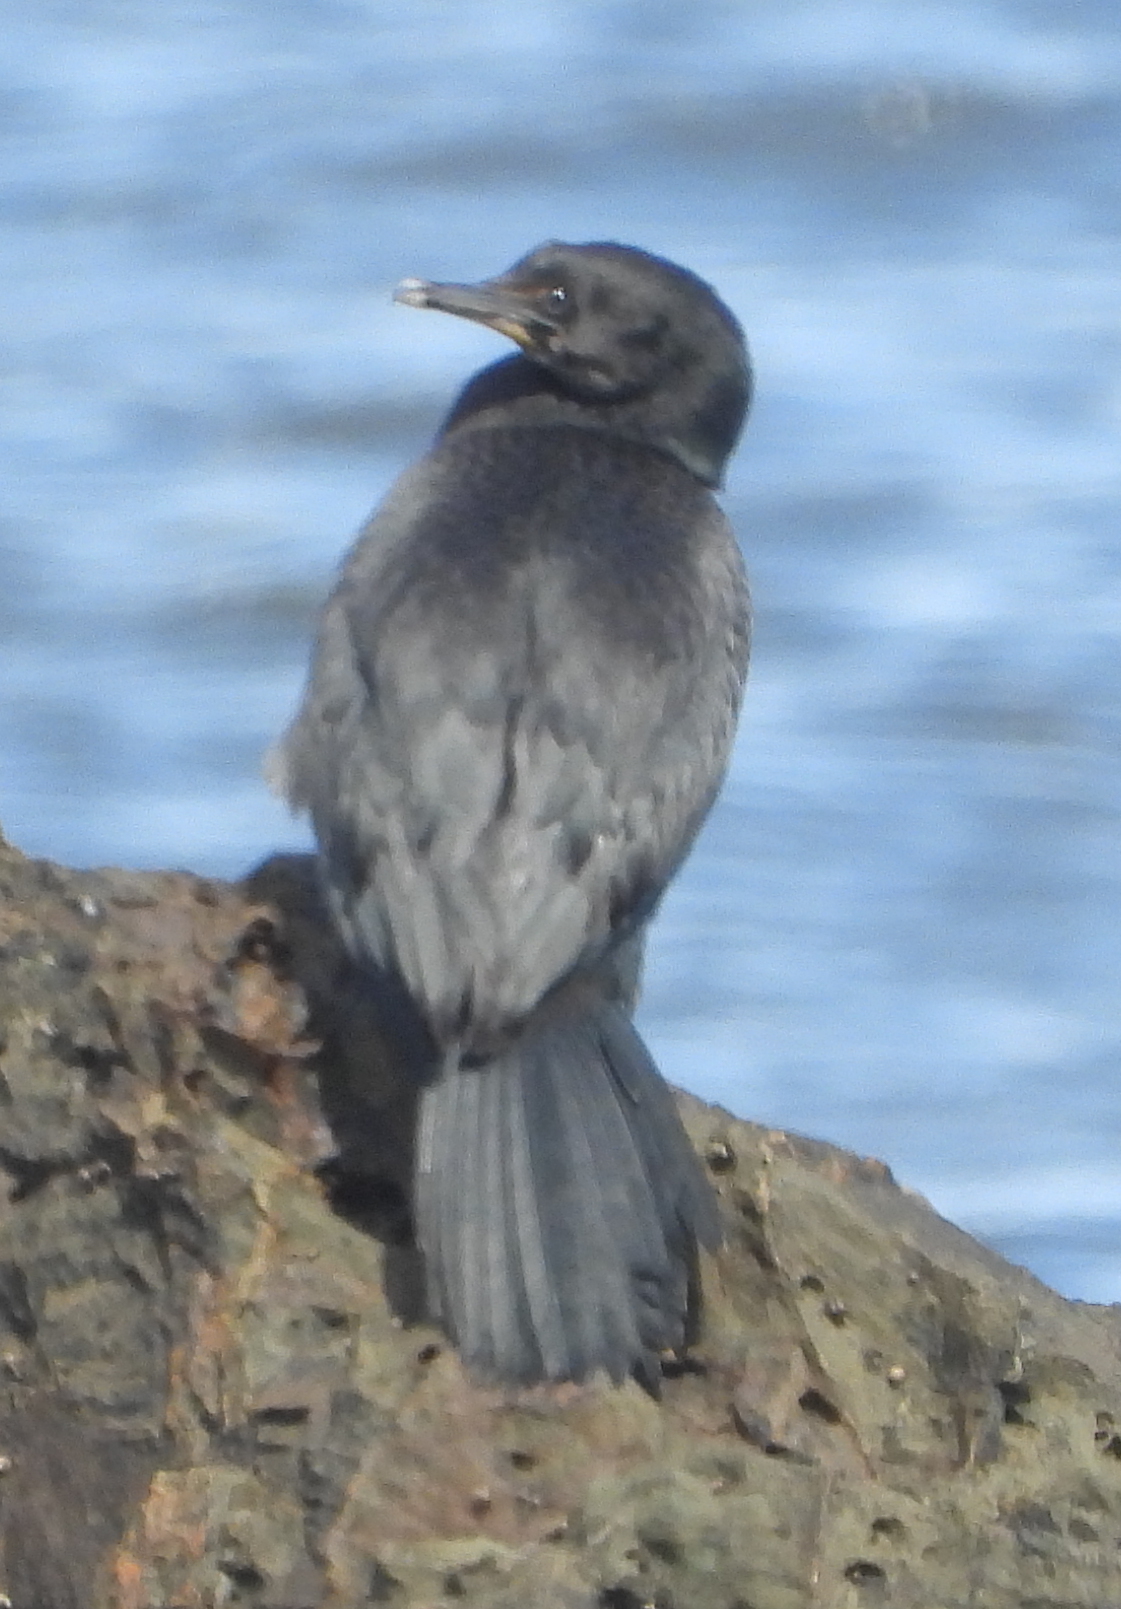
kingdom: Animalia
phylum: Chordata
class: Aves
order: Suliformes
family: Phalacrocoracidae
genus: Phalacrocorax
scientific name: Phalacrocorax neglectus
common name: Bank cormorant
